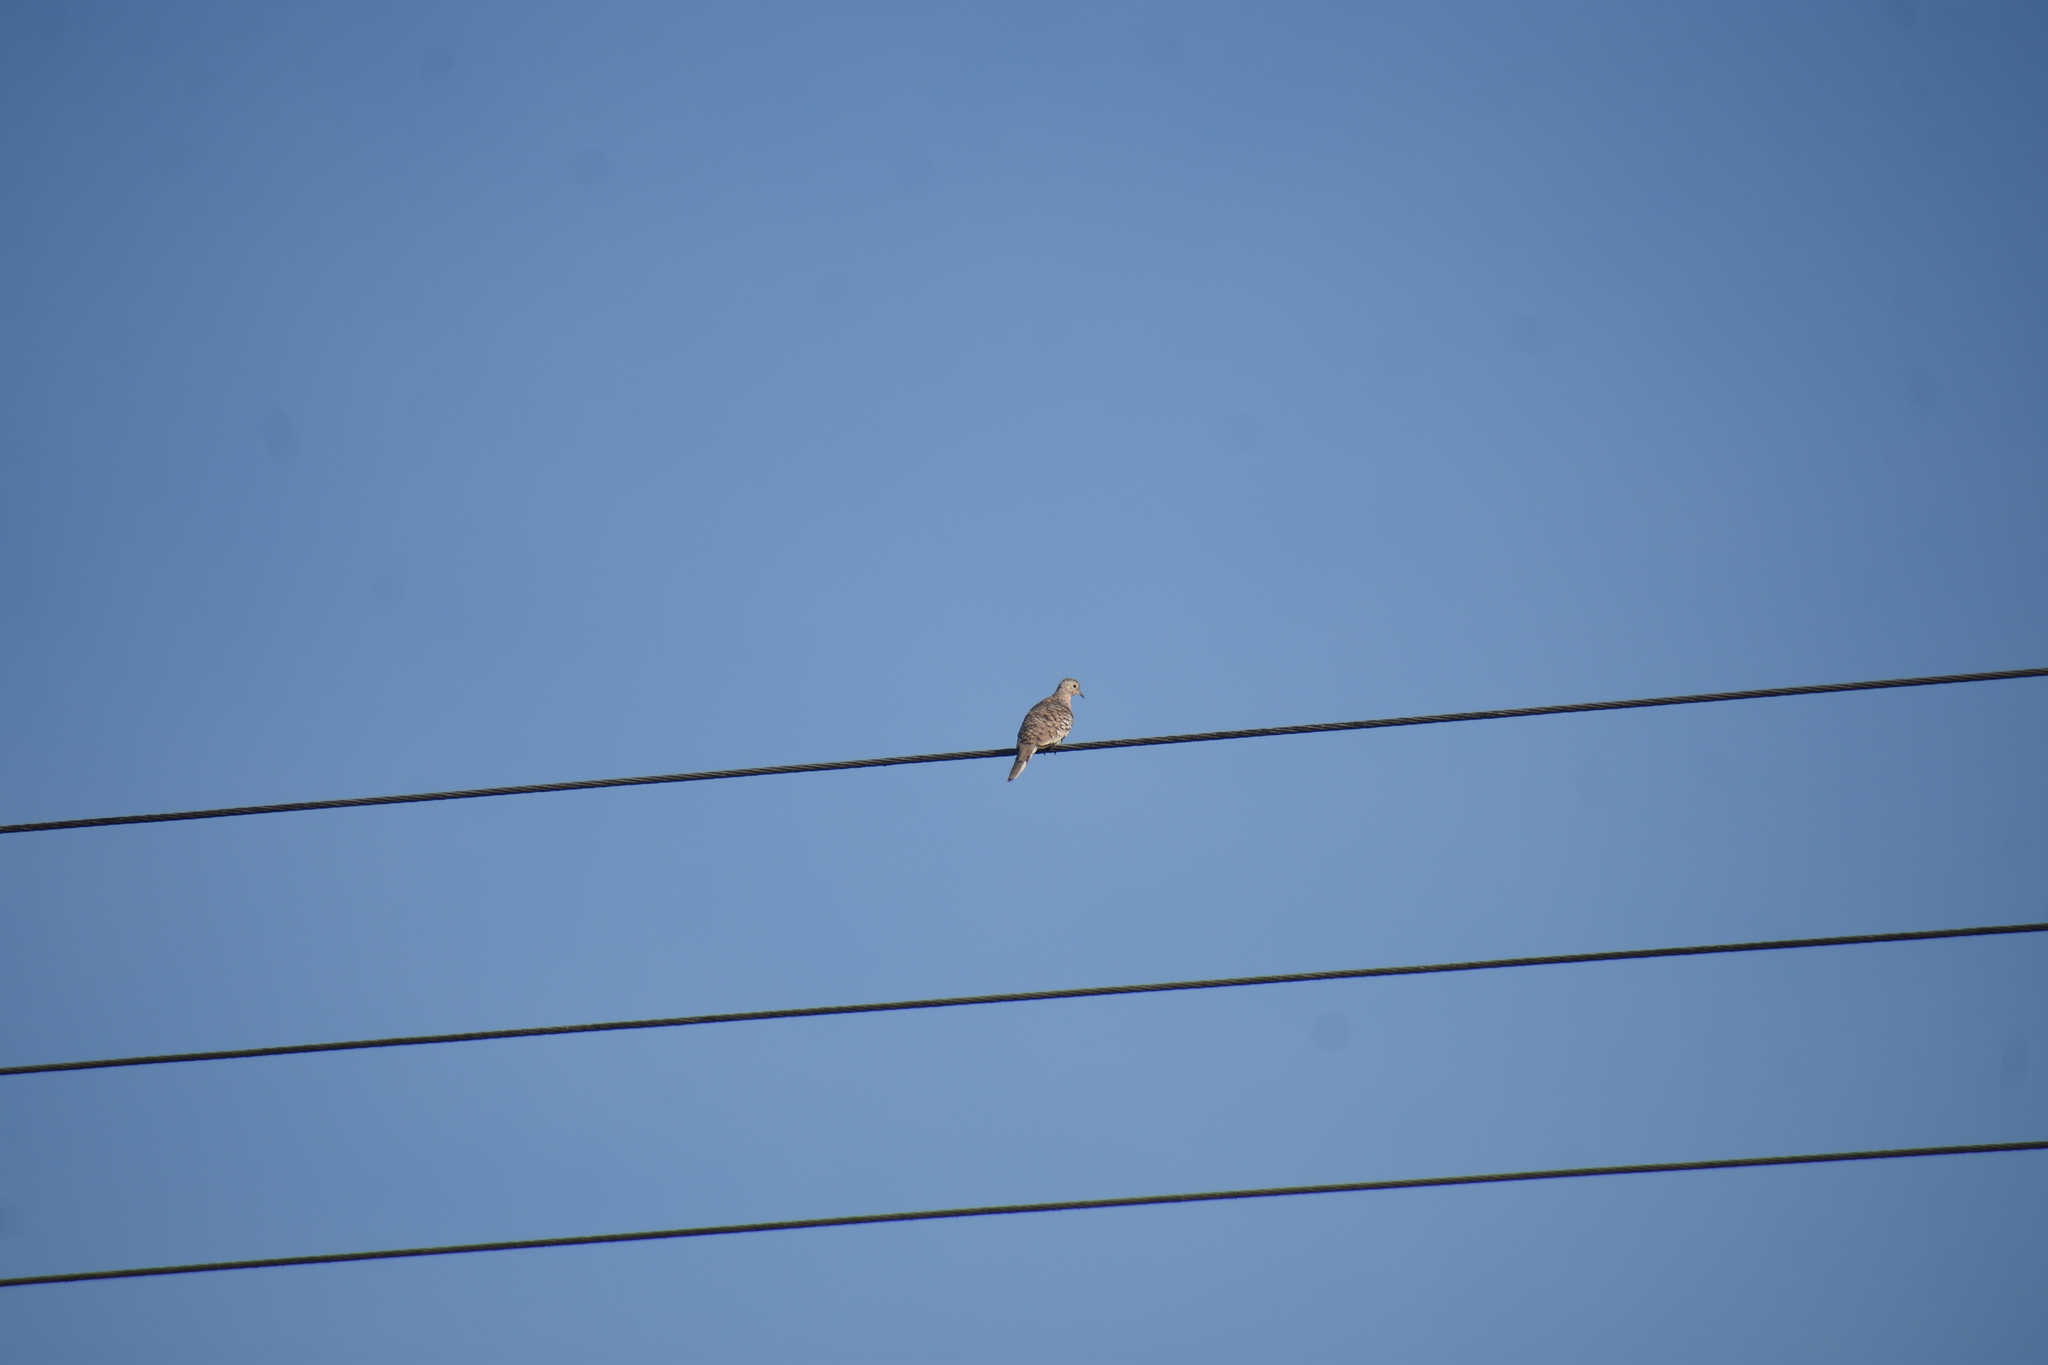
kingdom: Animalia
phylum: Chordata
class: Aves
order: Columbiformes
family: Columbidae
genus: Columbina
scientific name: Columbina squammata
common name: Scaled dove
